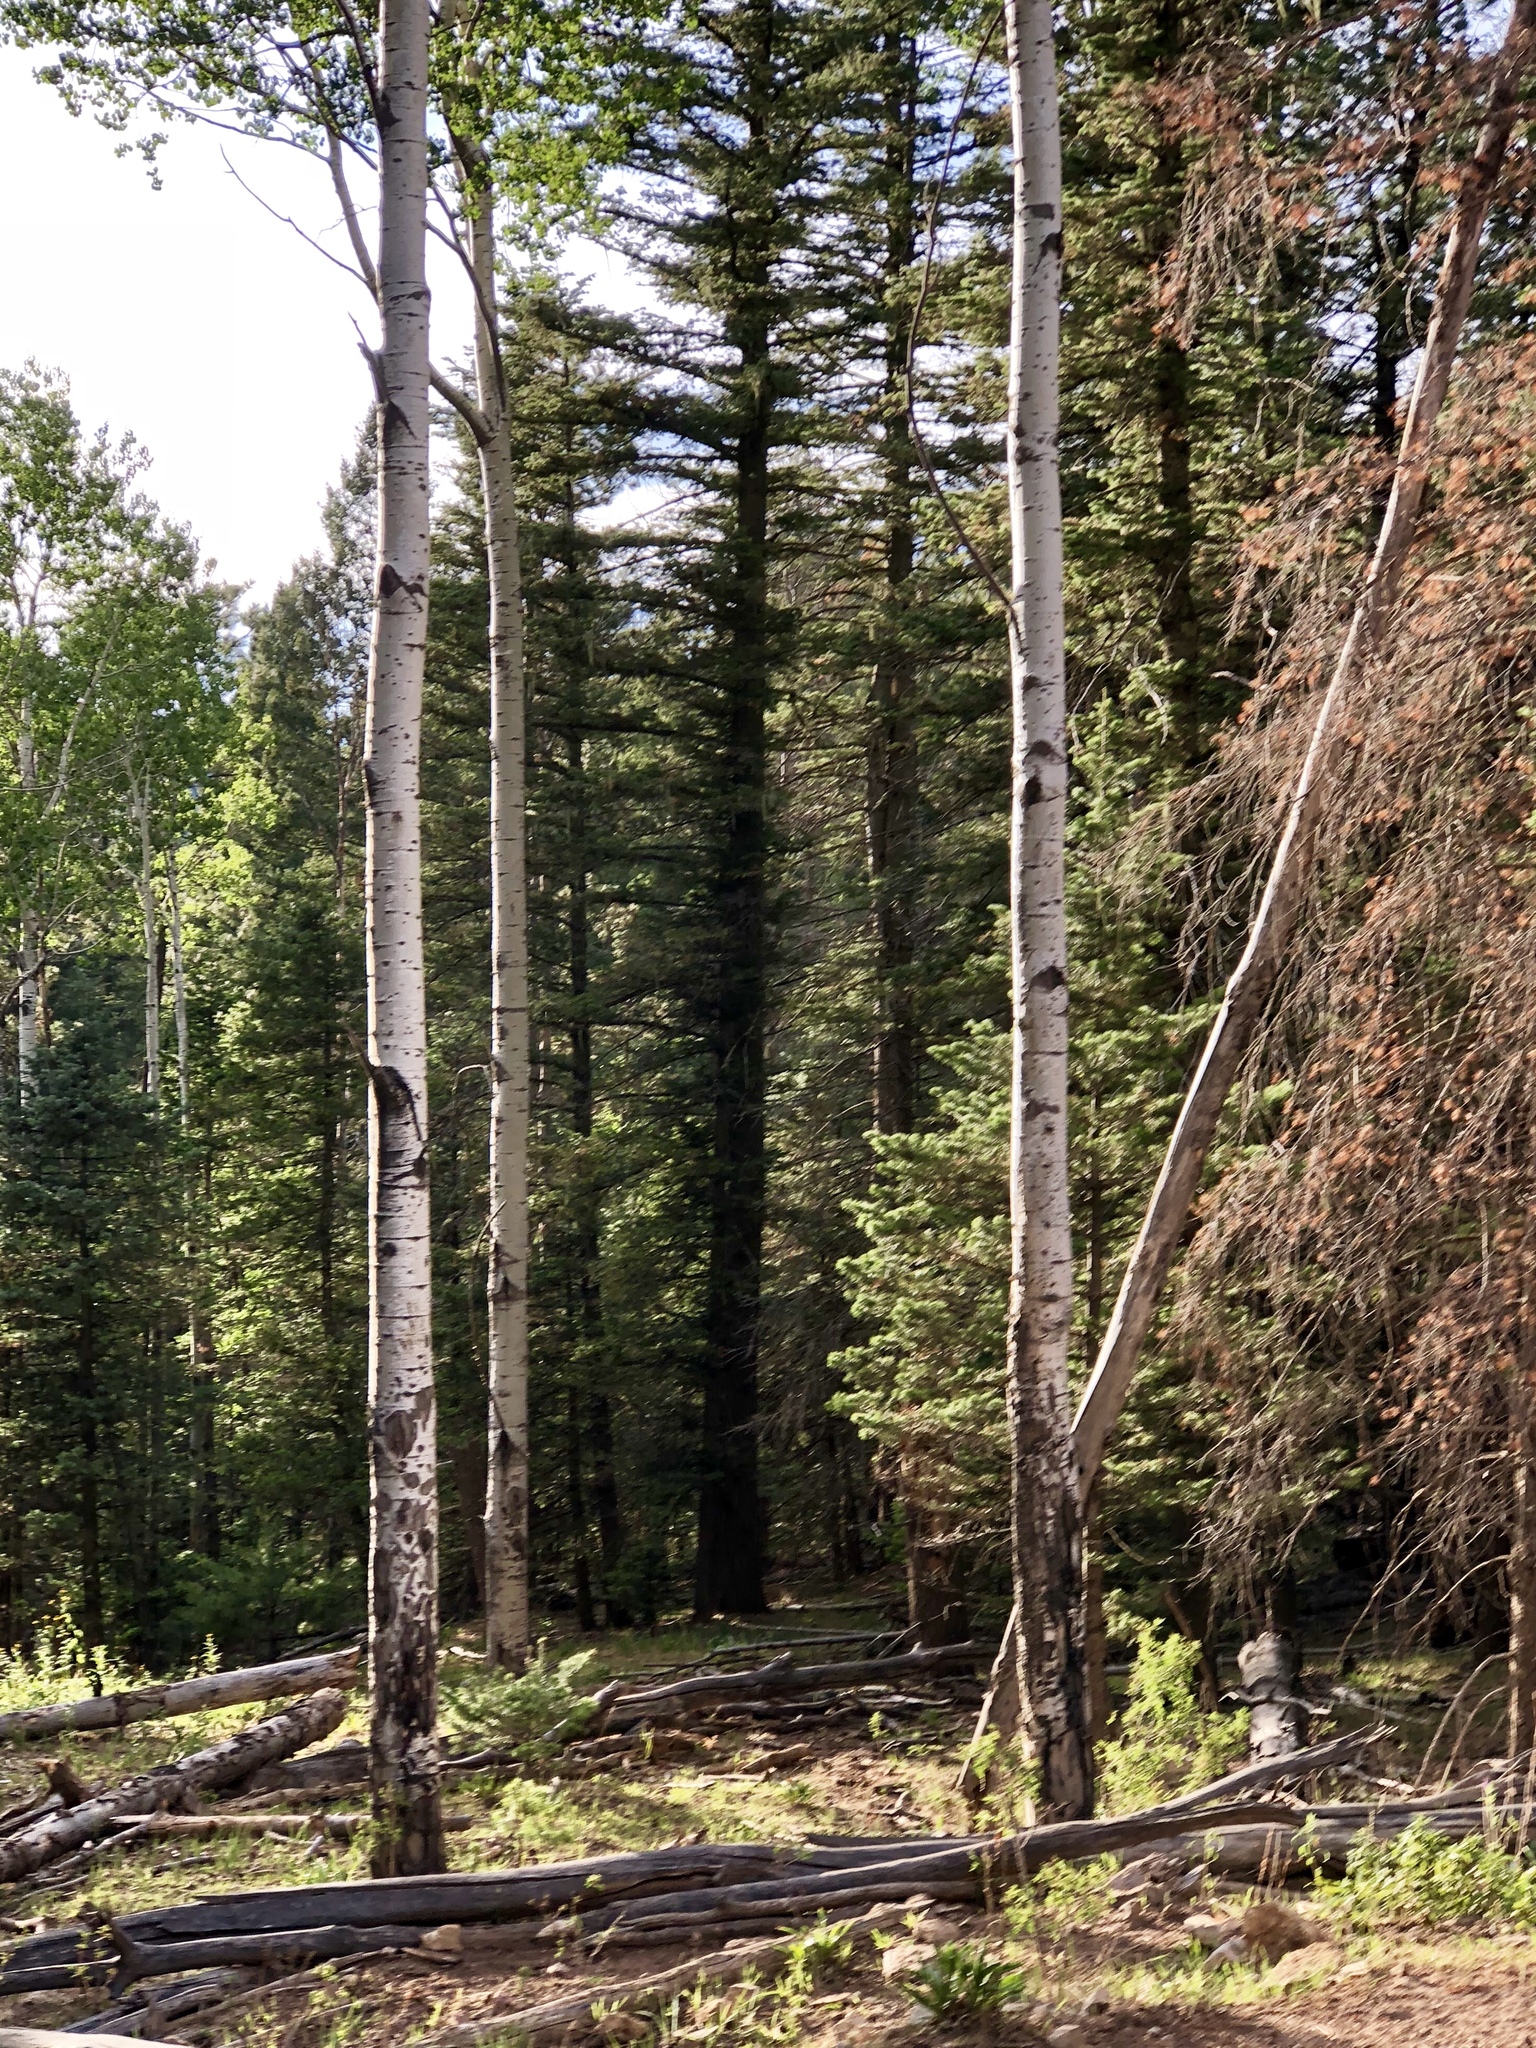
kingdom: Plantae
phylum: Tracheophyta
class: Magnoliopsida
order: Malpighiales
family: Salicaceae
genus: Populus
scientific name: Populus tremuloides
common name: Quaking aspen
